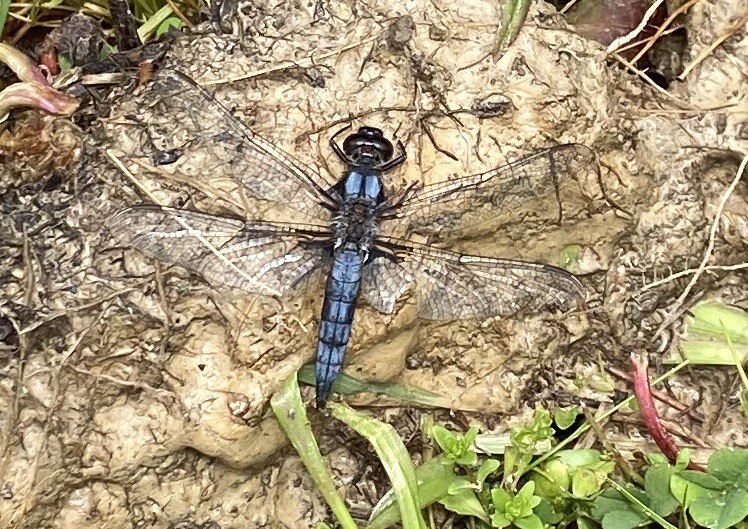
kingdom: Animalia
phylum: Arthropoda
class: Insecta
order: Odonata
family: Libellulidae
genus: Ladona
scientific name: Ladona deplanata
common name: Blue corporal
